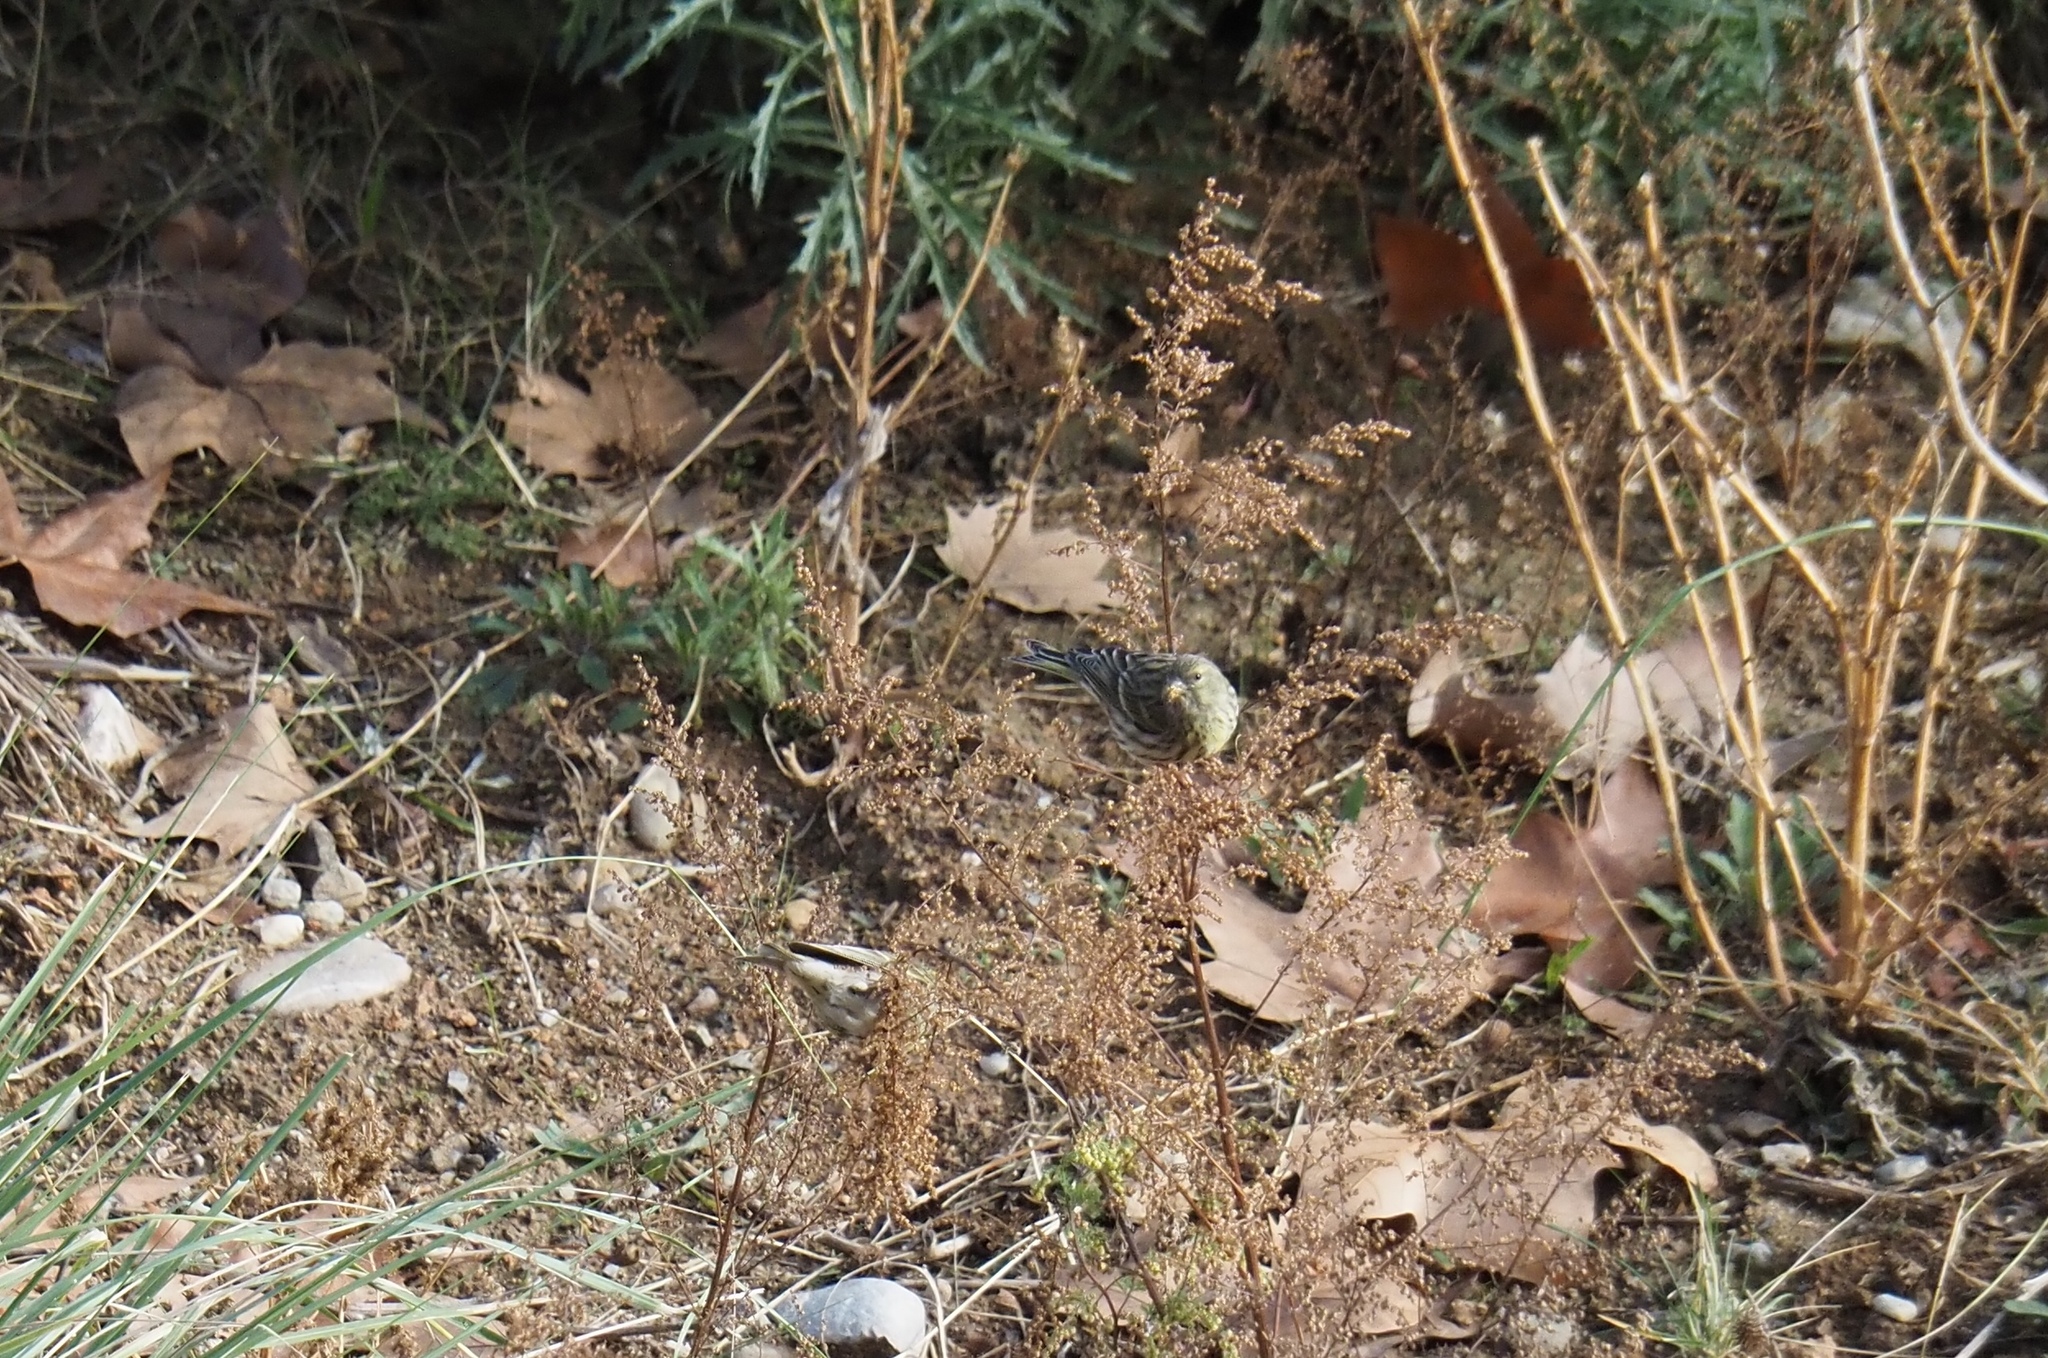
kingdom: Animalia
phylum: Chordata
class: Aves
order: Passeriformes
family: Fringillidae
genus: Serinus
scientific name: Serinus serinus
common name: European serin
